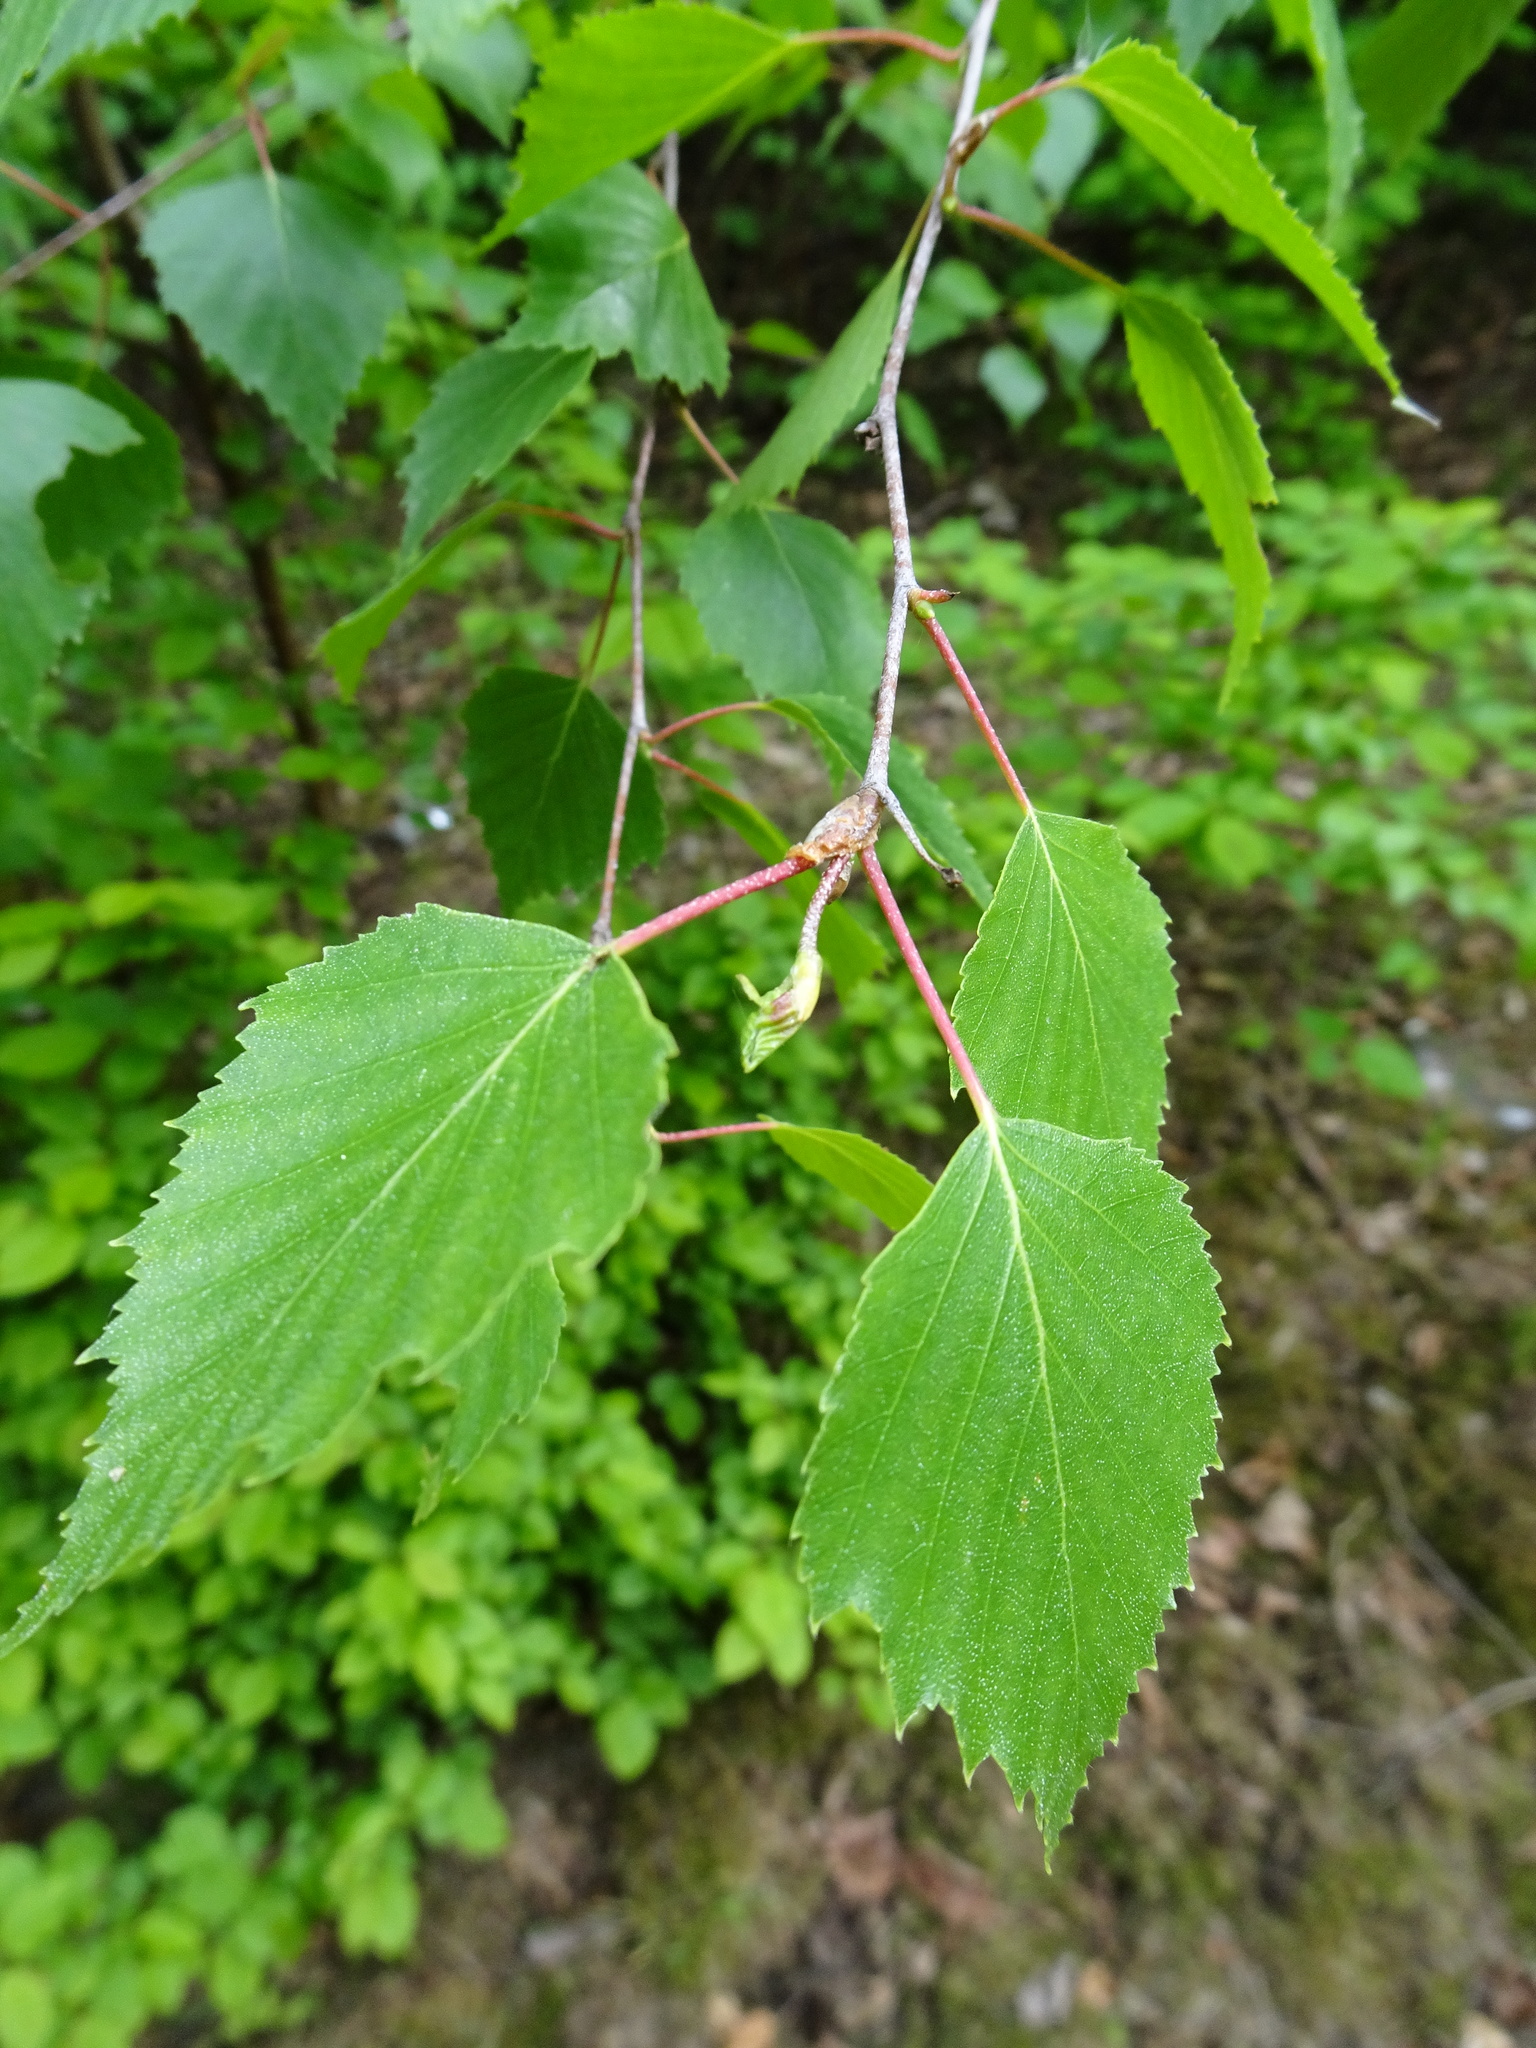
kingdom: Plantae
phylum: Tracheophyta
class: Magnoliopsida
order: Fagales
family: Betulaceae
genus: Betula
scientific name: Betula pendula
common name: Silver birch
